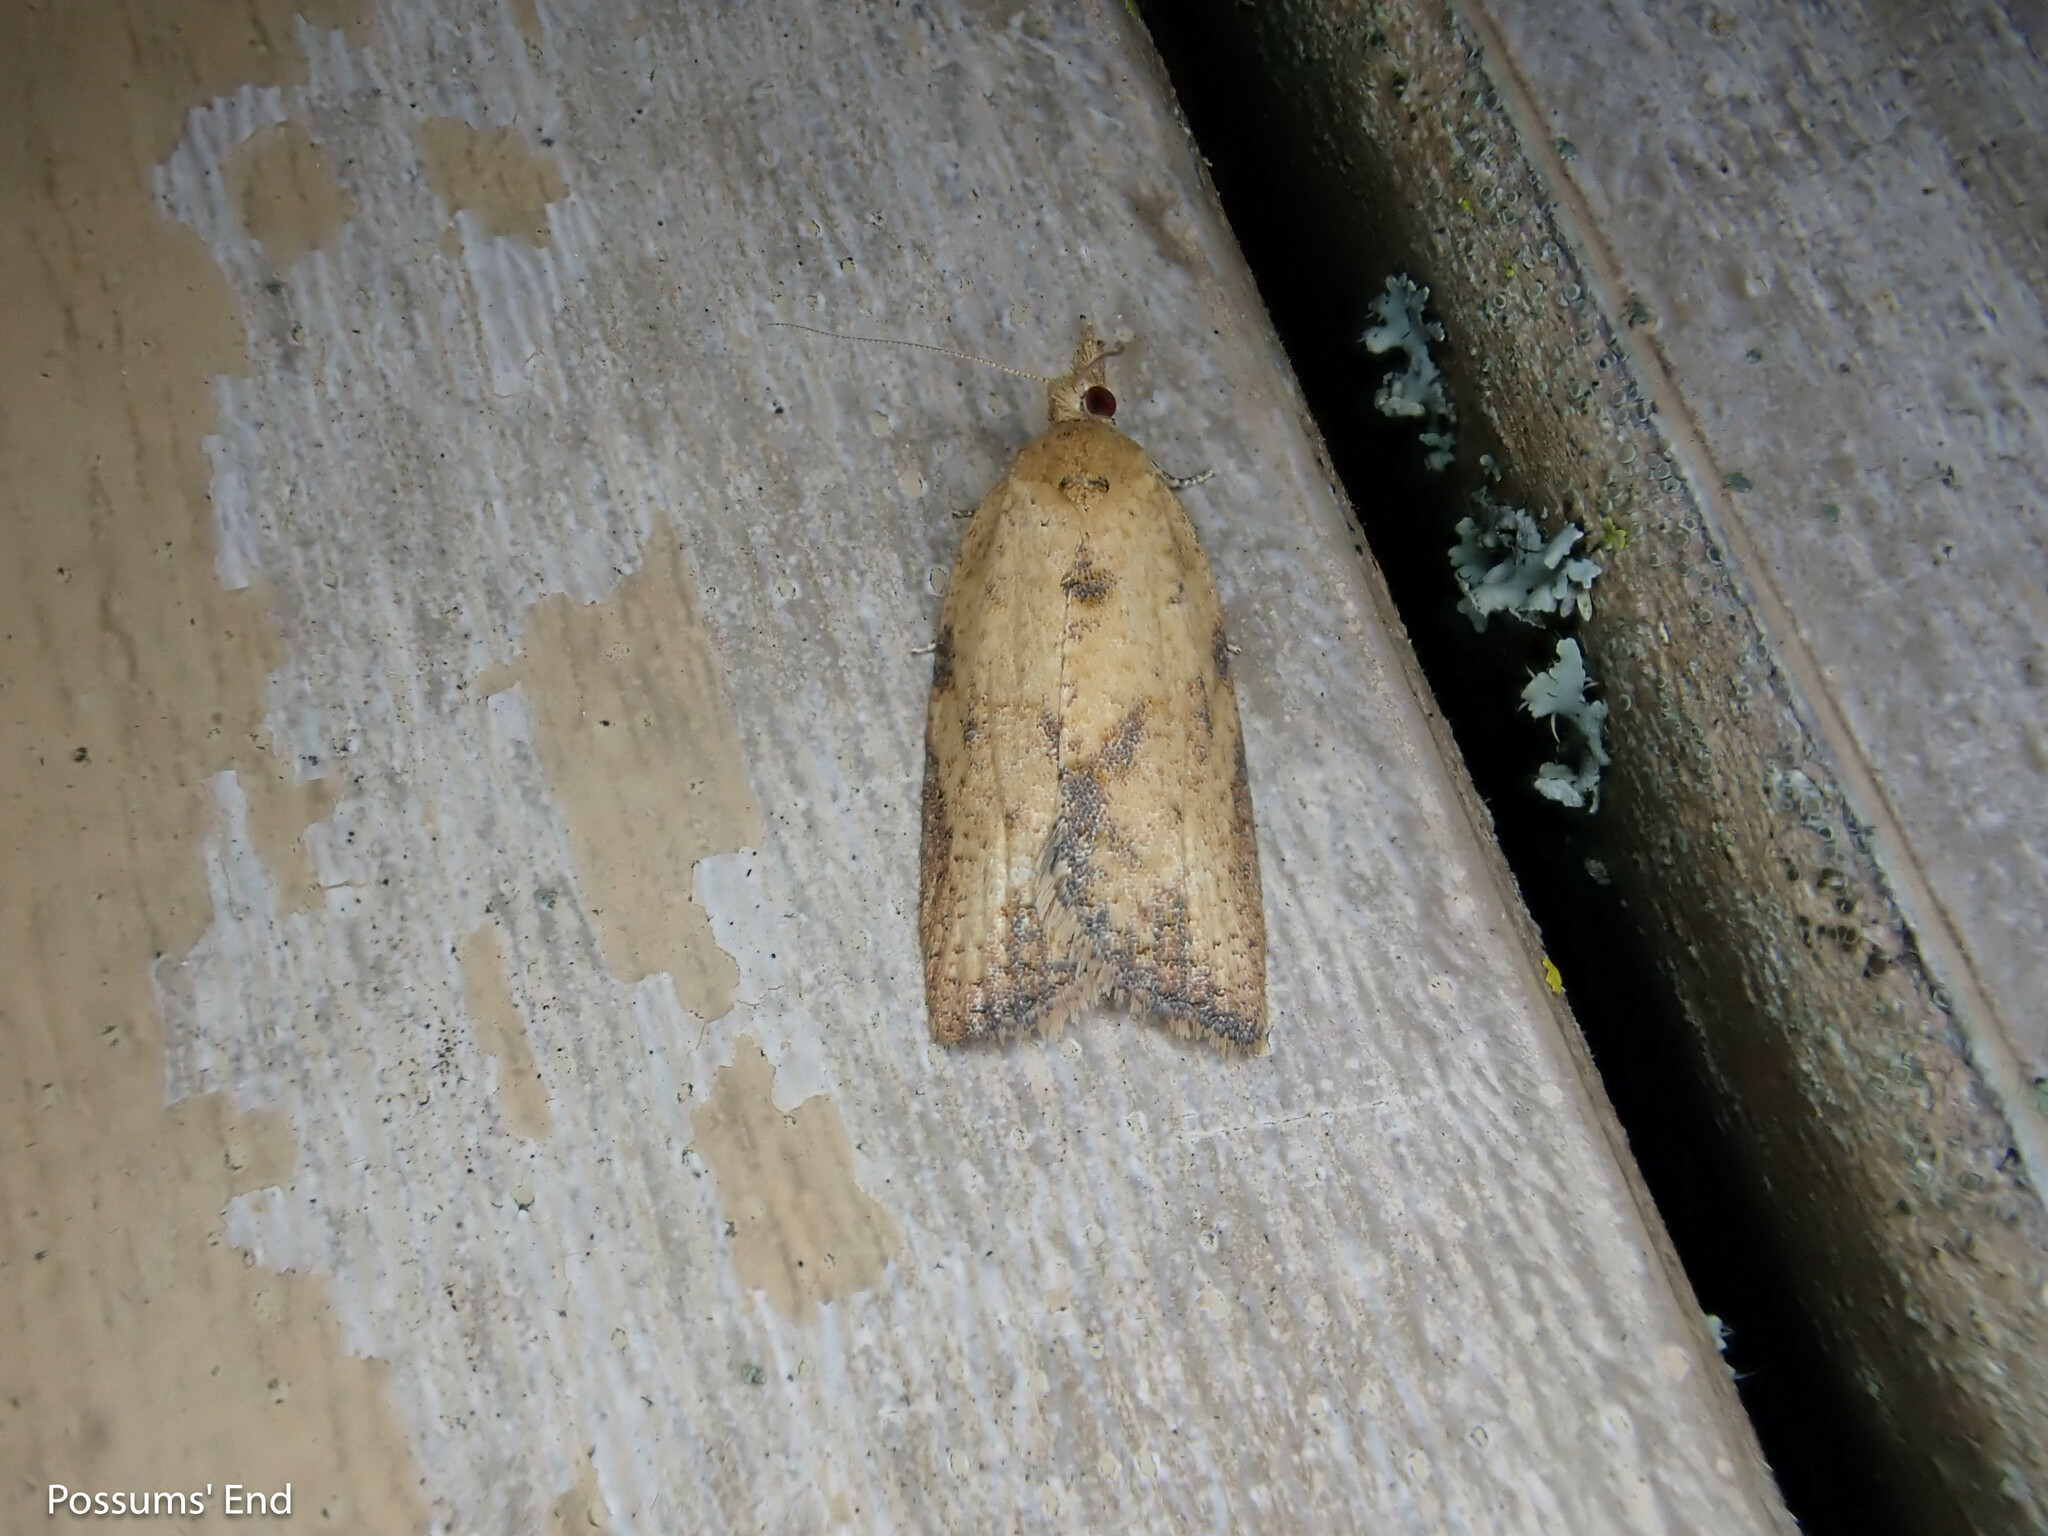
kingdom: Animalia
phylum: Arthropoda
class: Insecta
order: Lepidoptera
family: Tortricidae
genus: Epiphyas
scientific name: Epiphyas postvittana
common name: Light brown apple moth
